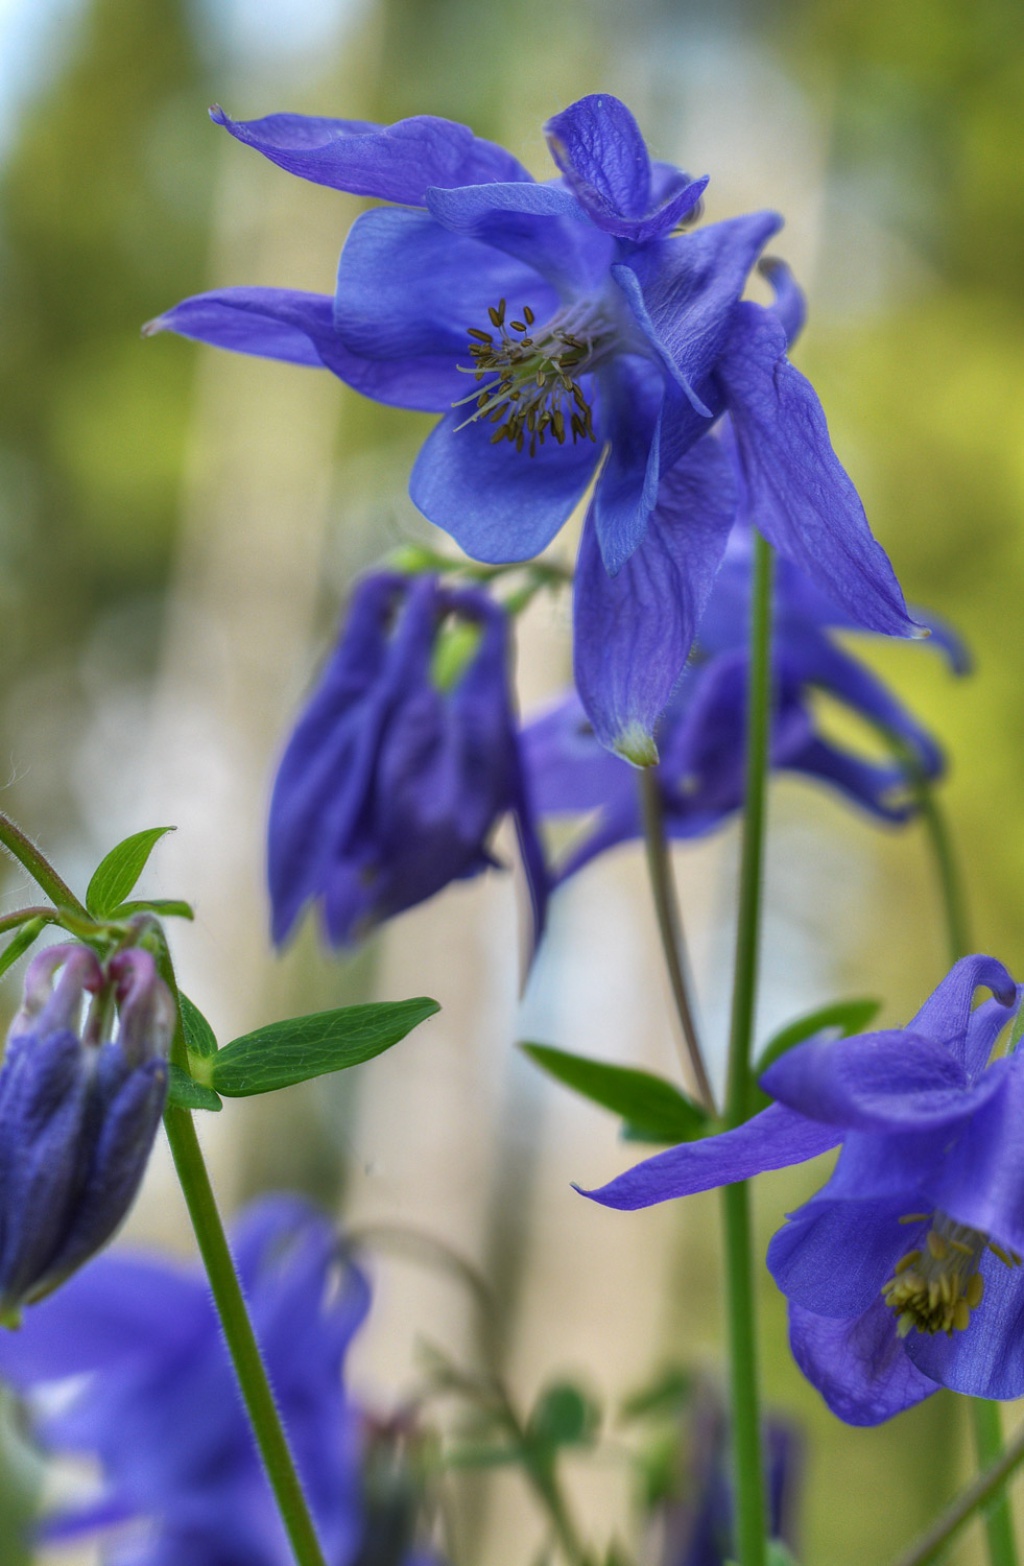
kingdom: Plantae
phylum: Tracheophyta
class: Magnoliopsida
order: Ranunculales
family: Ranunculaceae
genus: Aquilegia
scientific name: Aquilegia vulgaris
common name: Columbine
